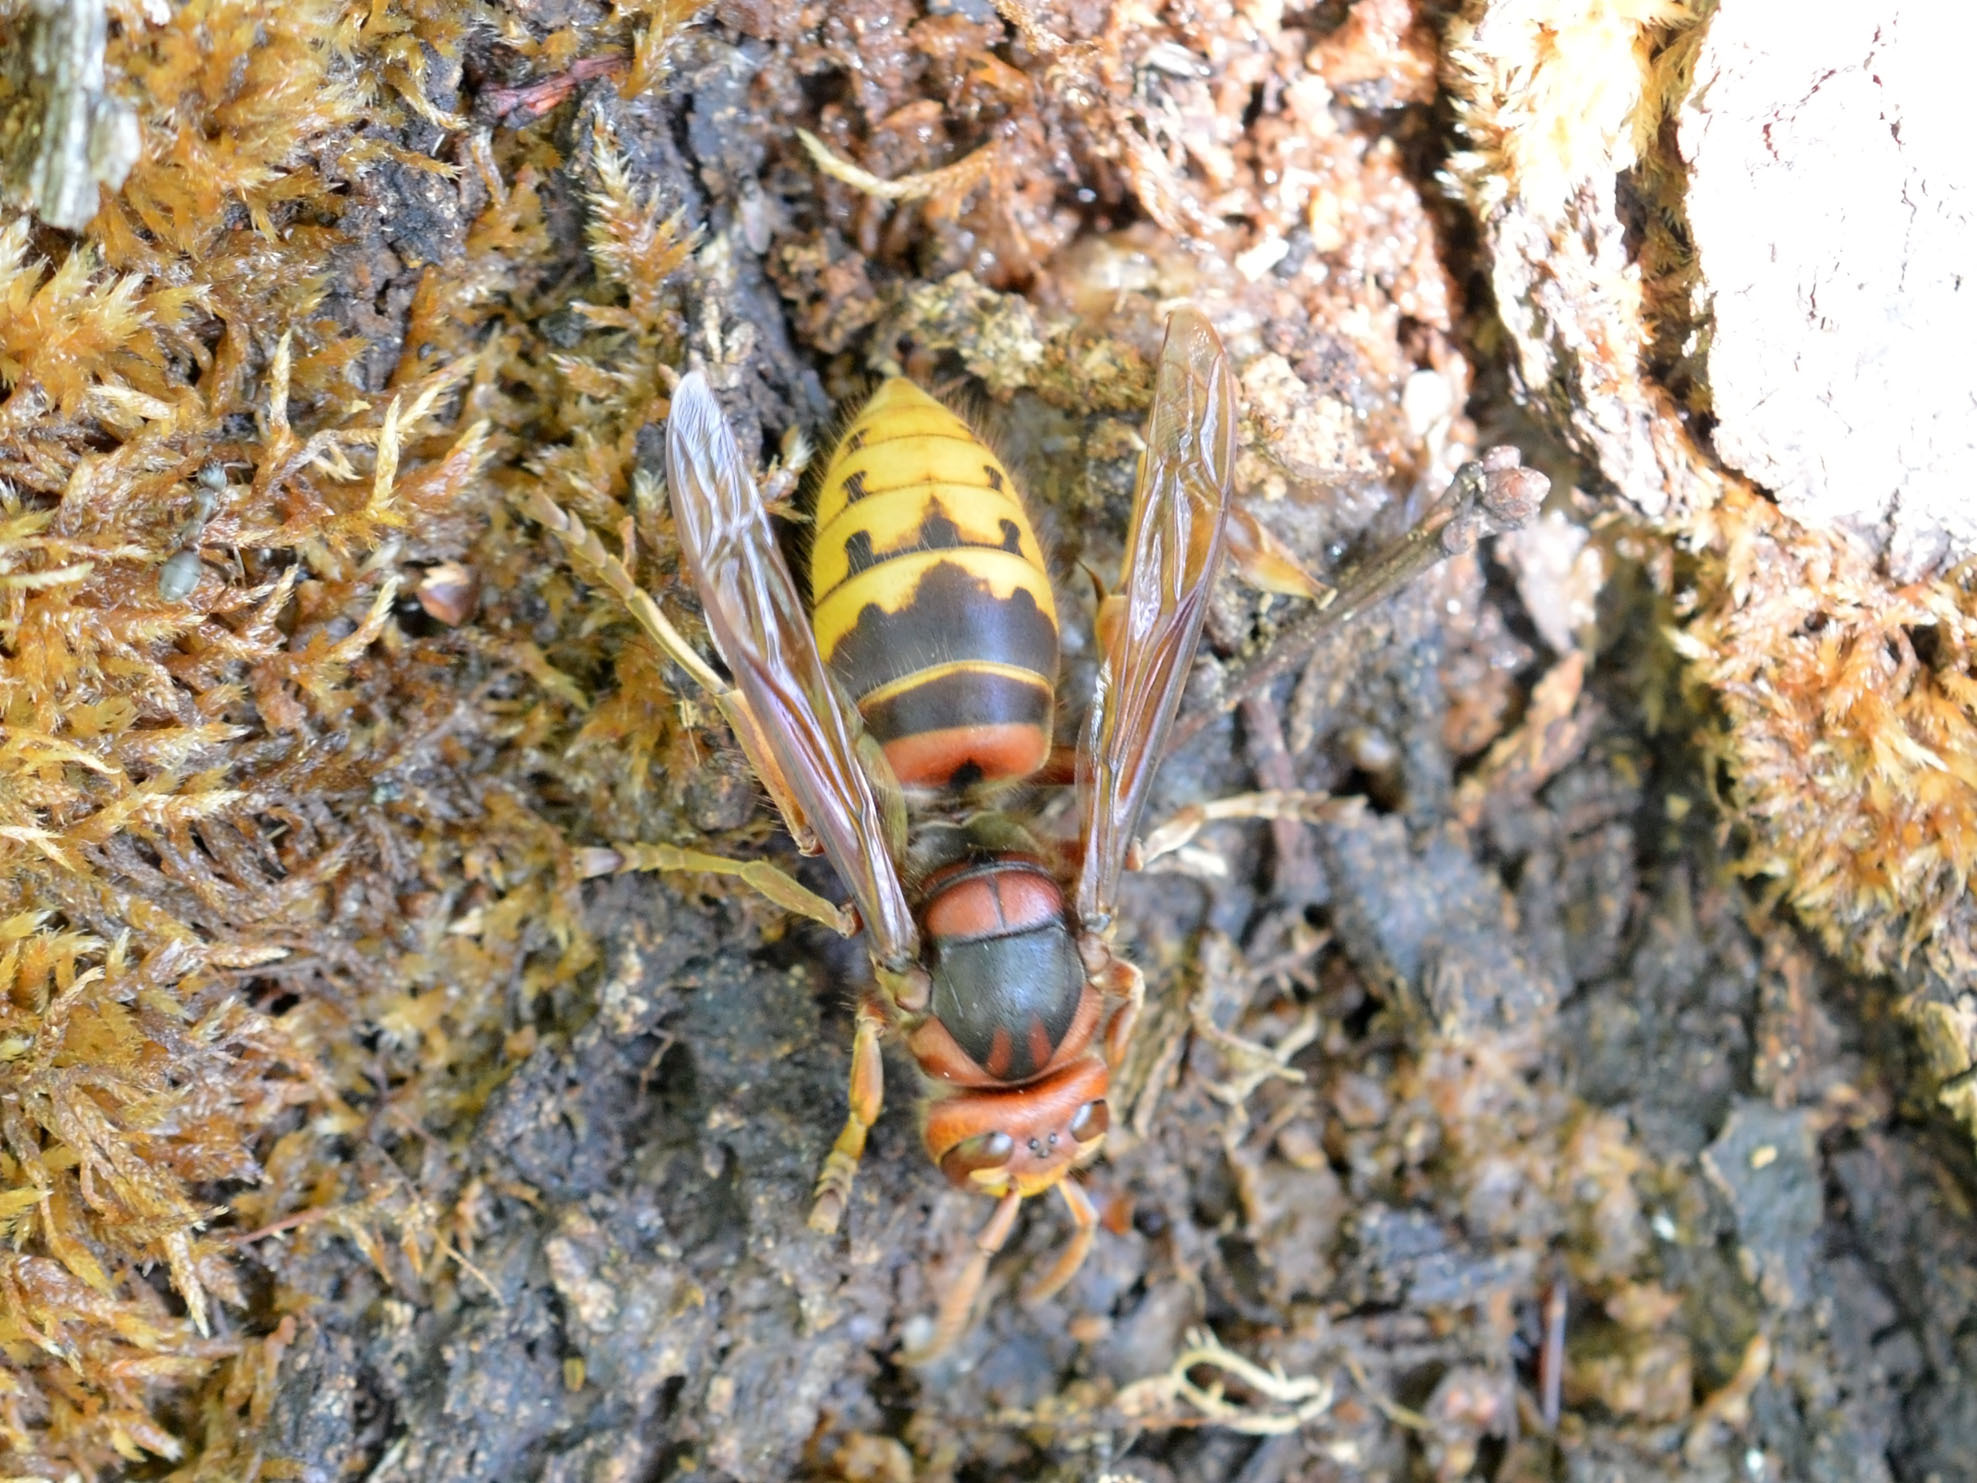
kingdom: Animalia
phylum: Arthropoda
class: Insecta
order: Hymenoptera
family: Vespidae
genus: Vespa
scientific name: Vespa crabro
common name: Hornet
